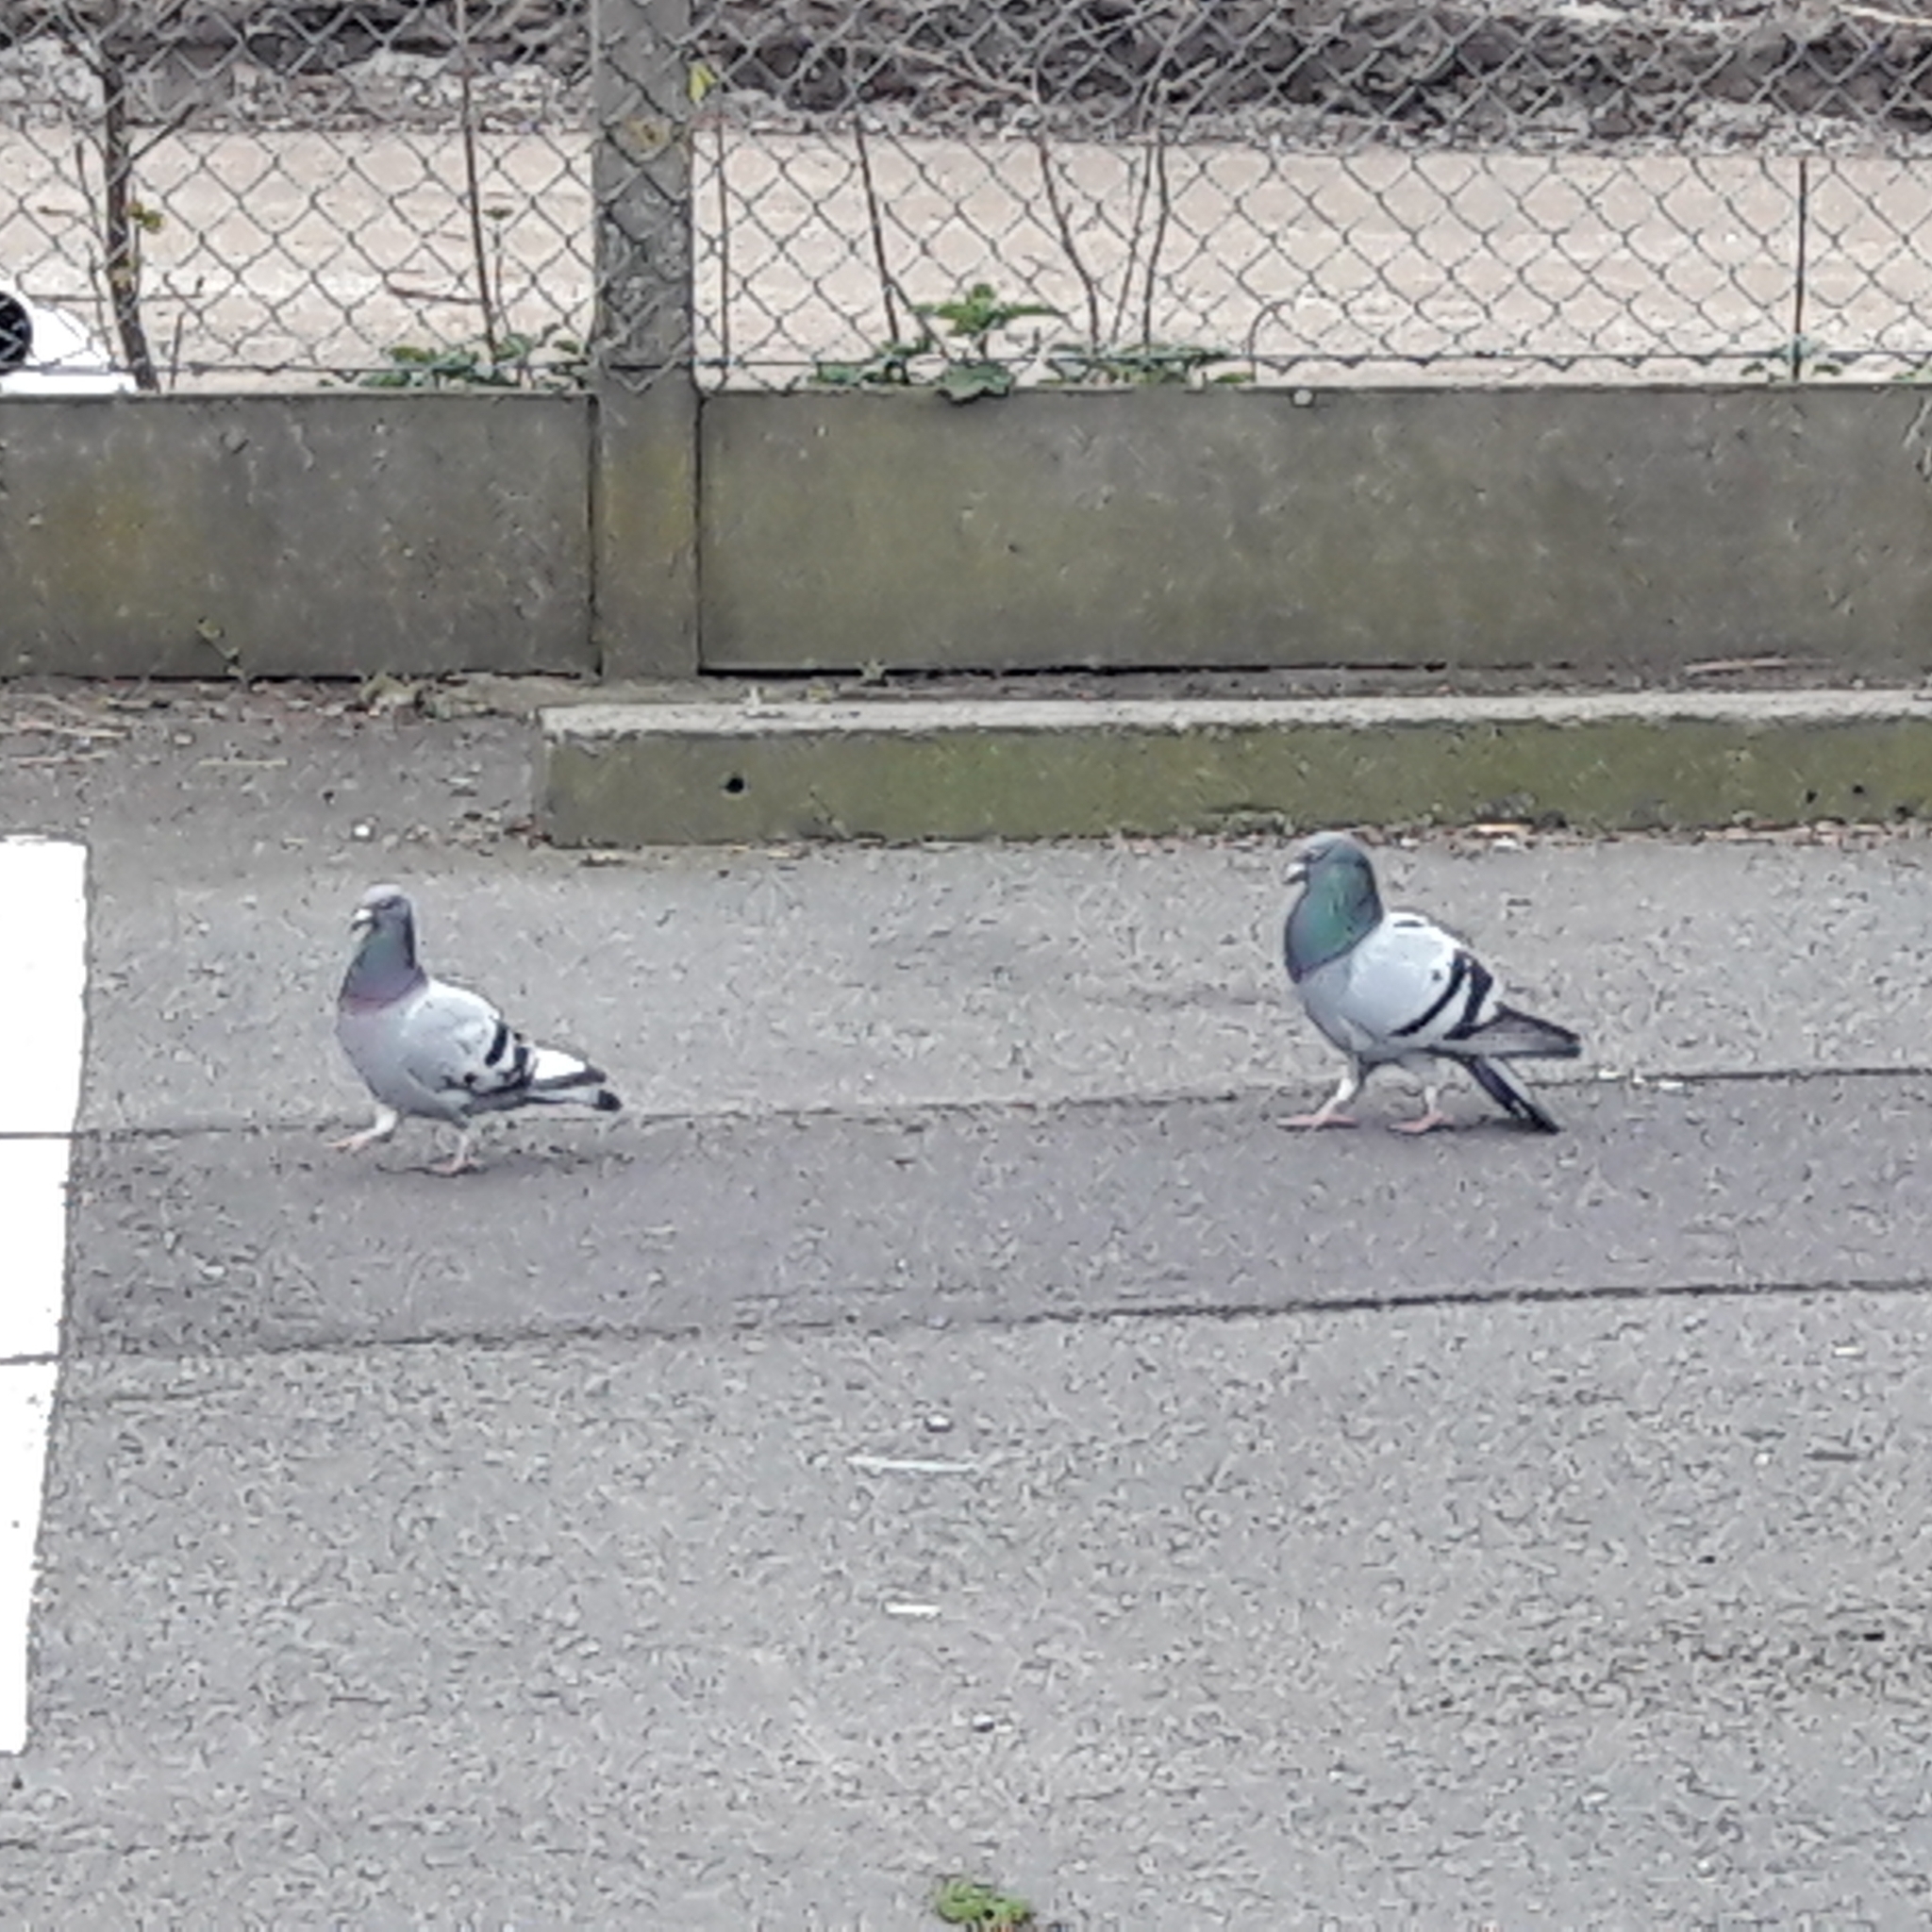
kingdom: Animalia
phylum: Chordata
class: Aves
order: Columbiformes
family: Columbidae
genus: Columba
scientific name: Columba livia
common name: Rock pigeon
